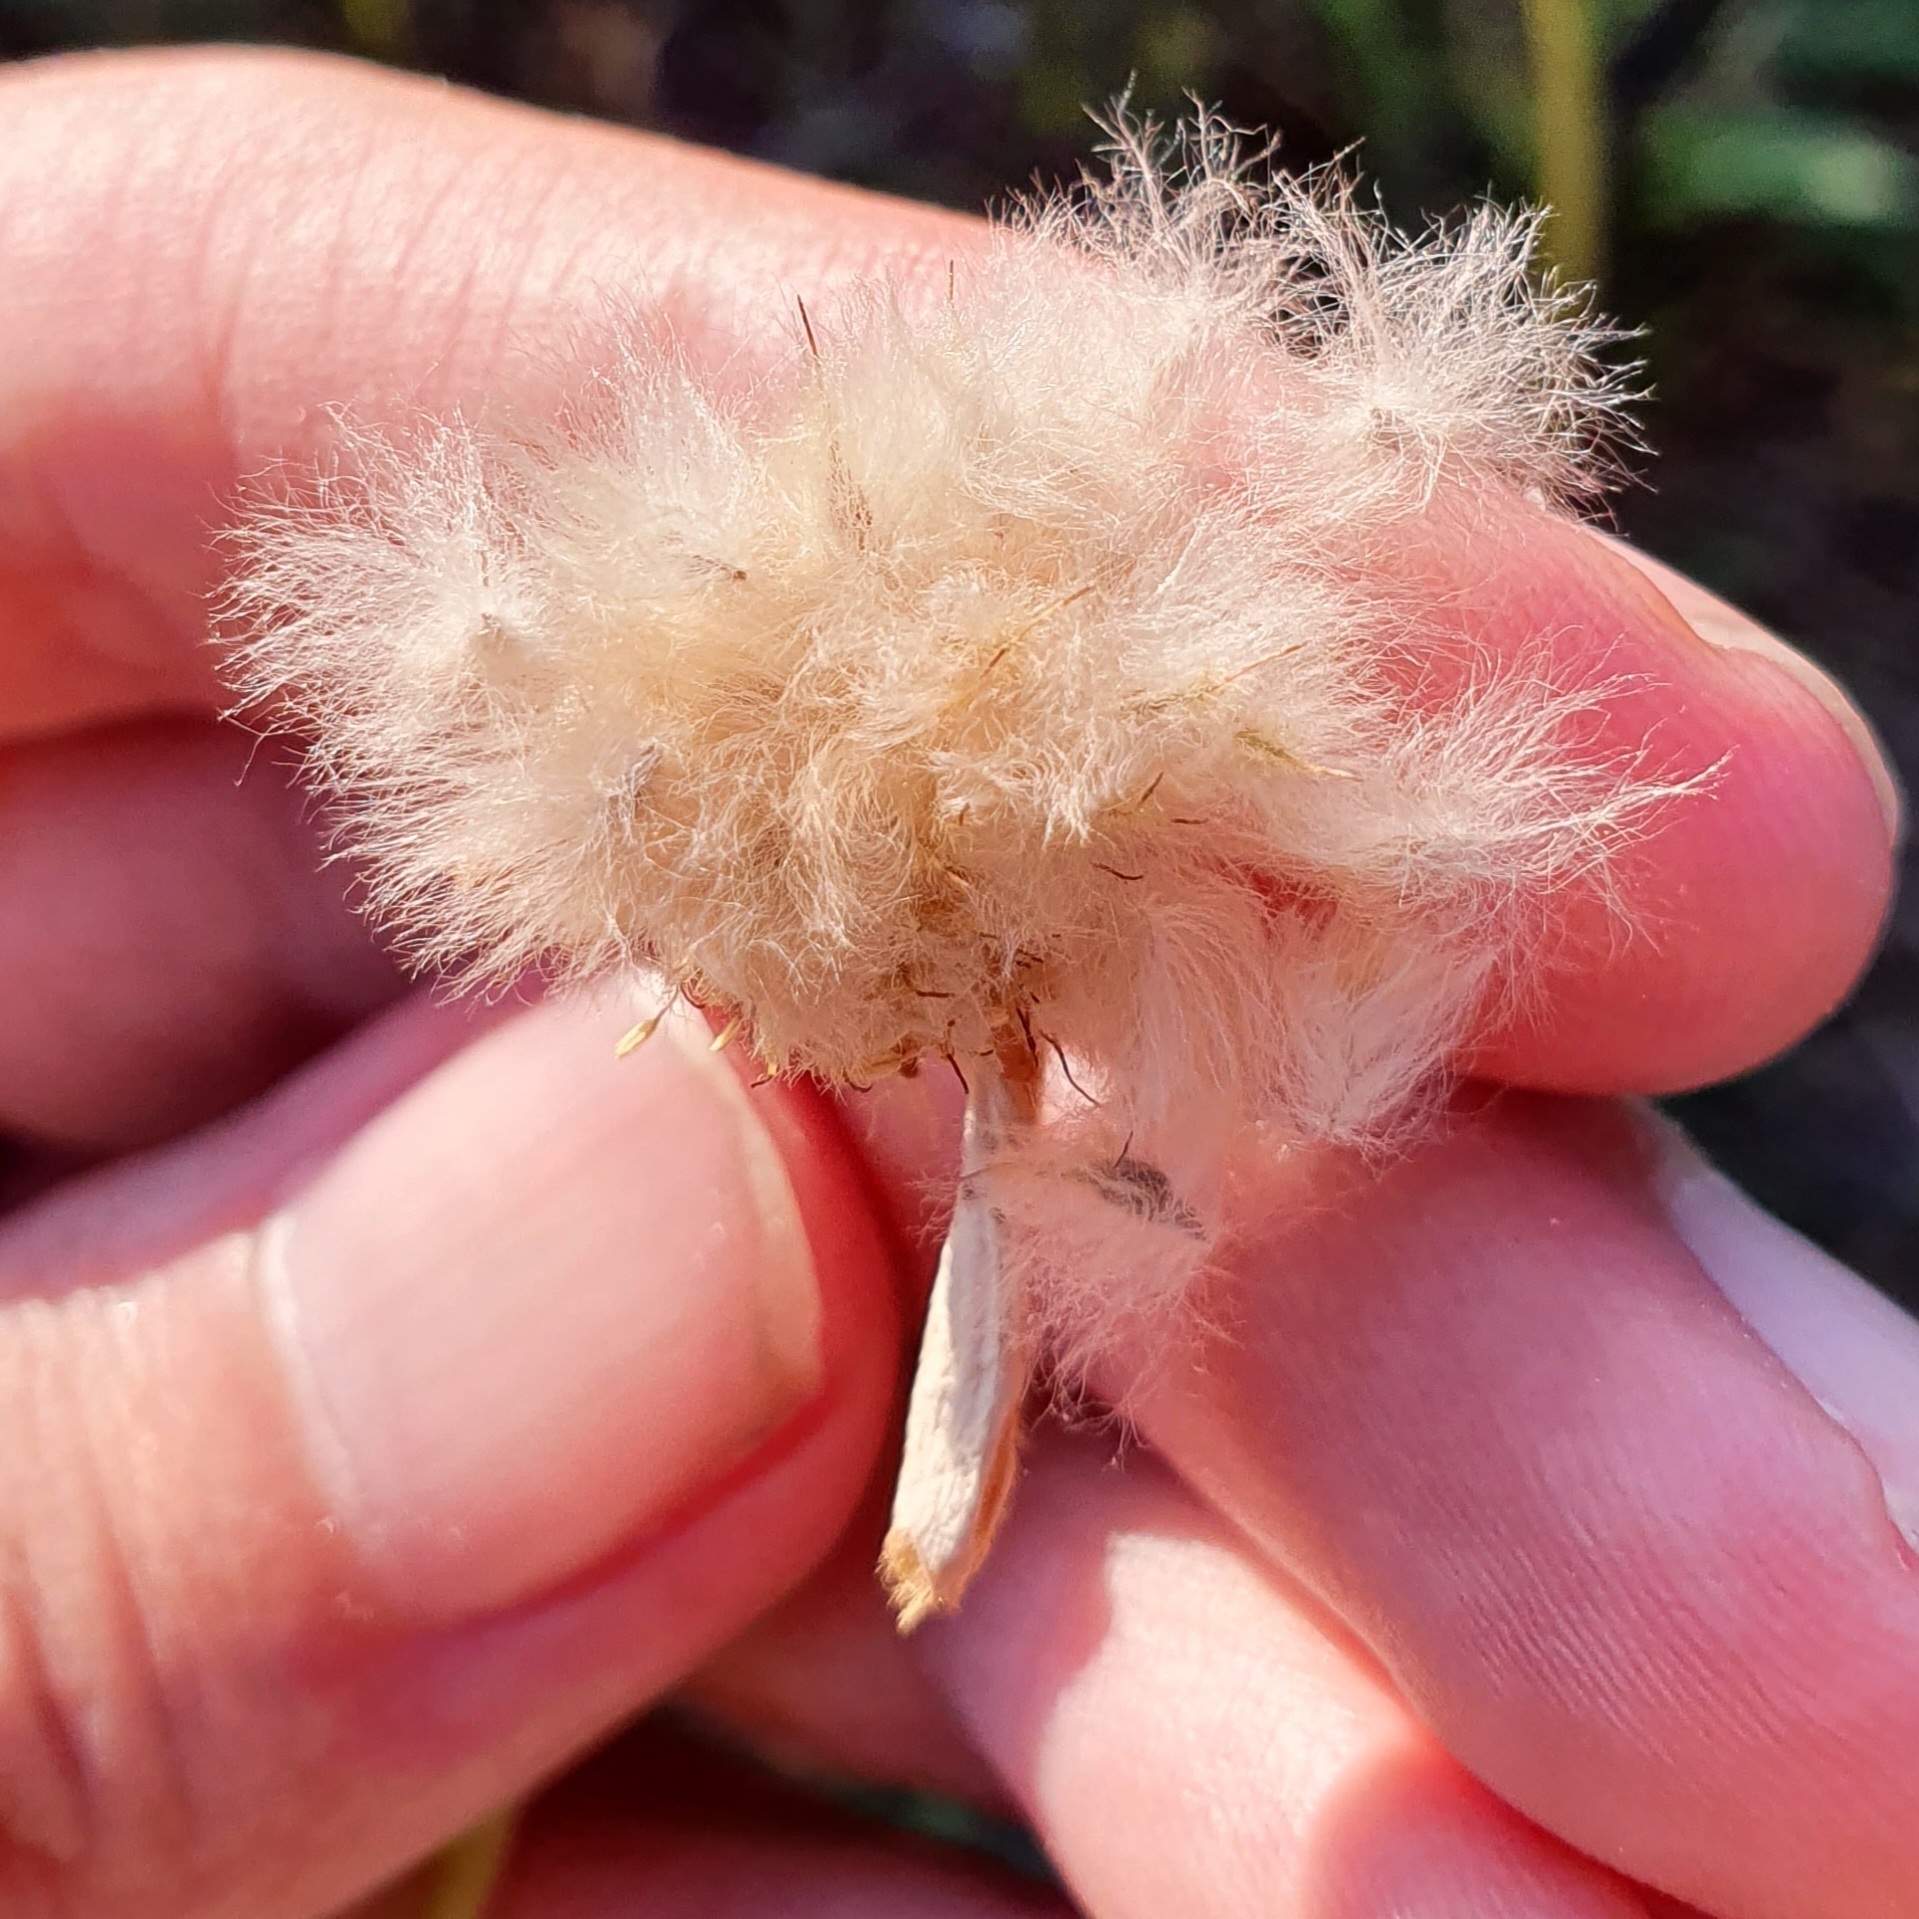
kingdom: Plantae
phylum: Tracheophyta
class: Magnoliopsida
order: Ranunculales
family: Ranunculaceae
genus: Anemone
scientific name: Anemone palmata
